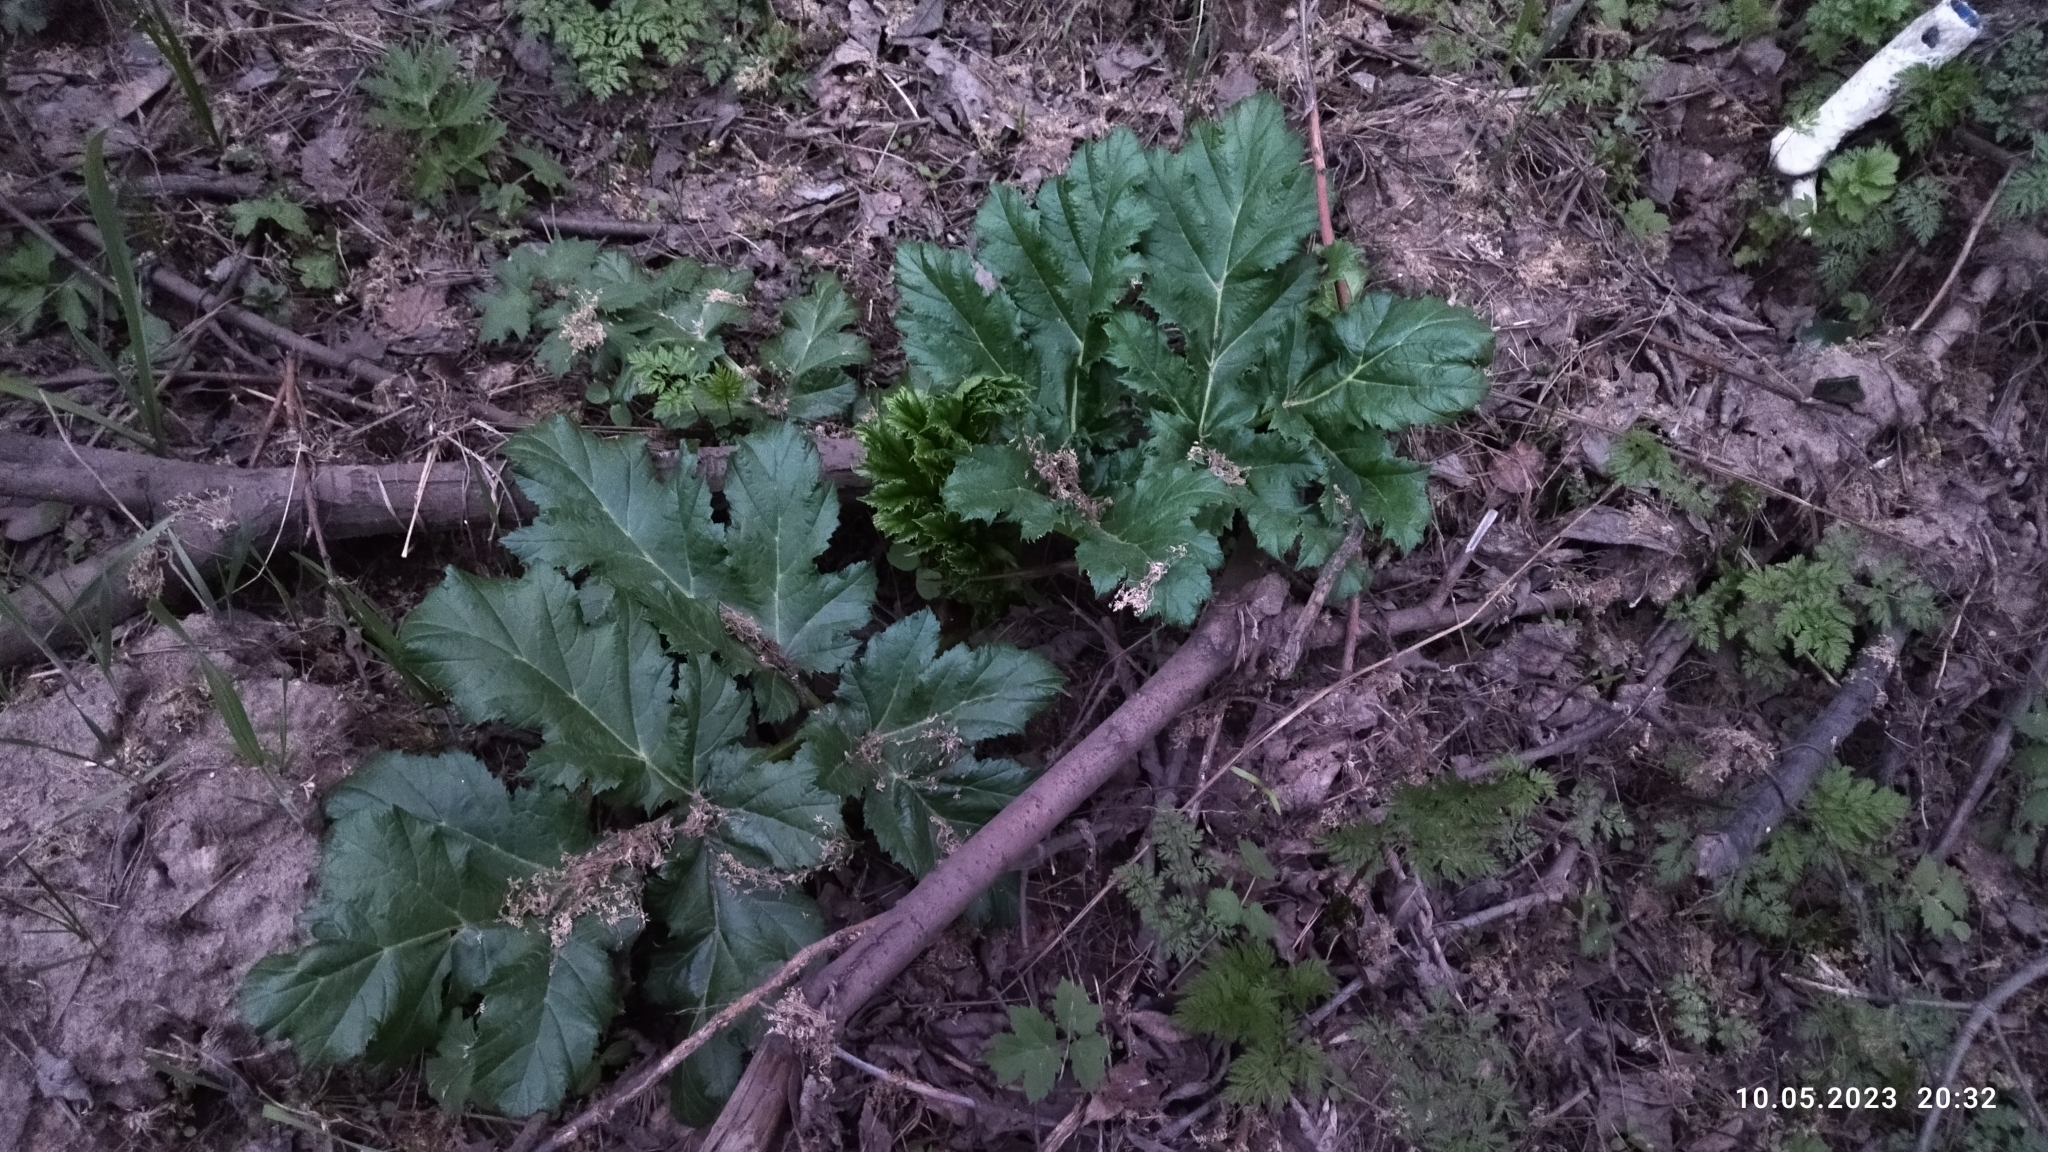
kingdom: Plantae
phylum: Tracheophyta
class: Magnoliopsida
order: Apiales
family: Apiaceae
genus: Heracleum
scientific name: Heracleum sosnowskyi
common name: Sosnowsky's hogweed
